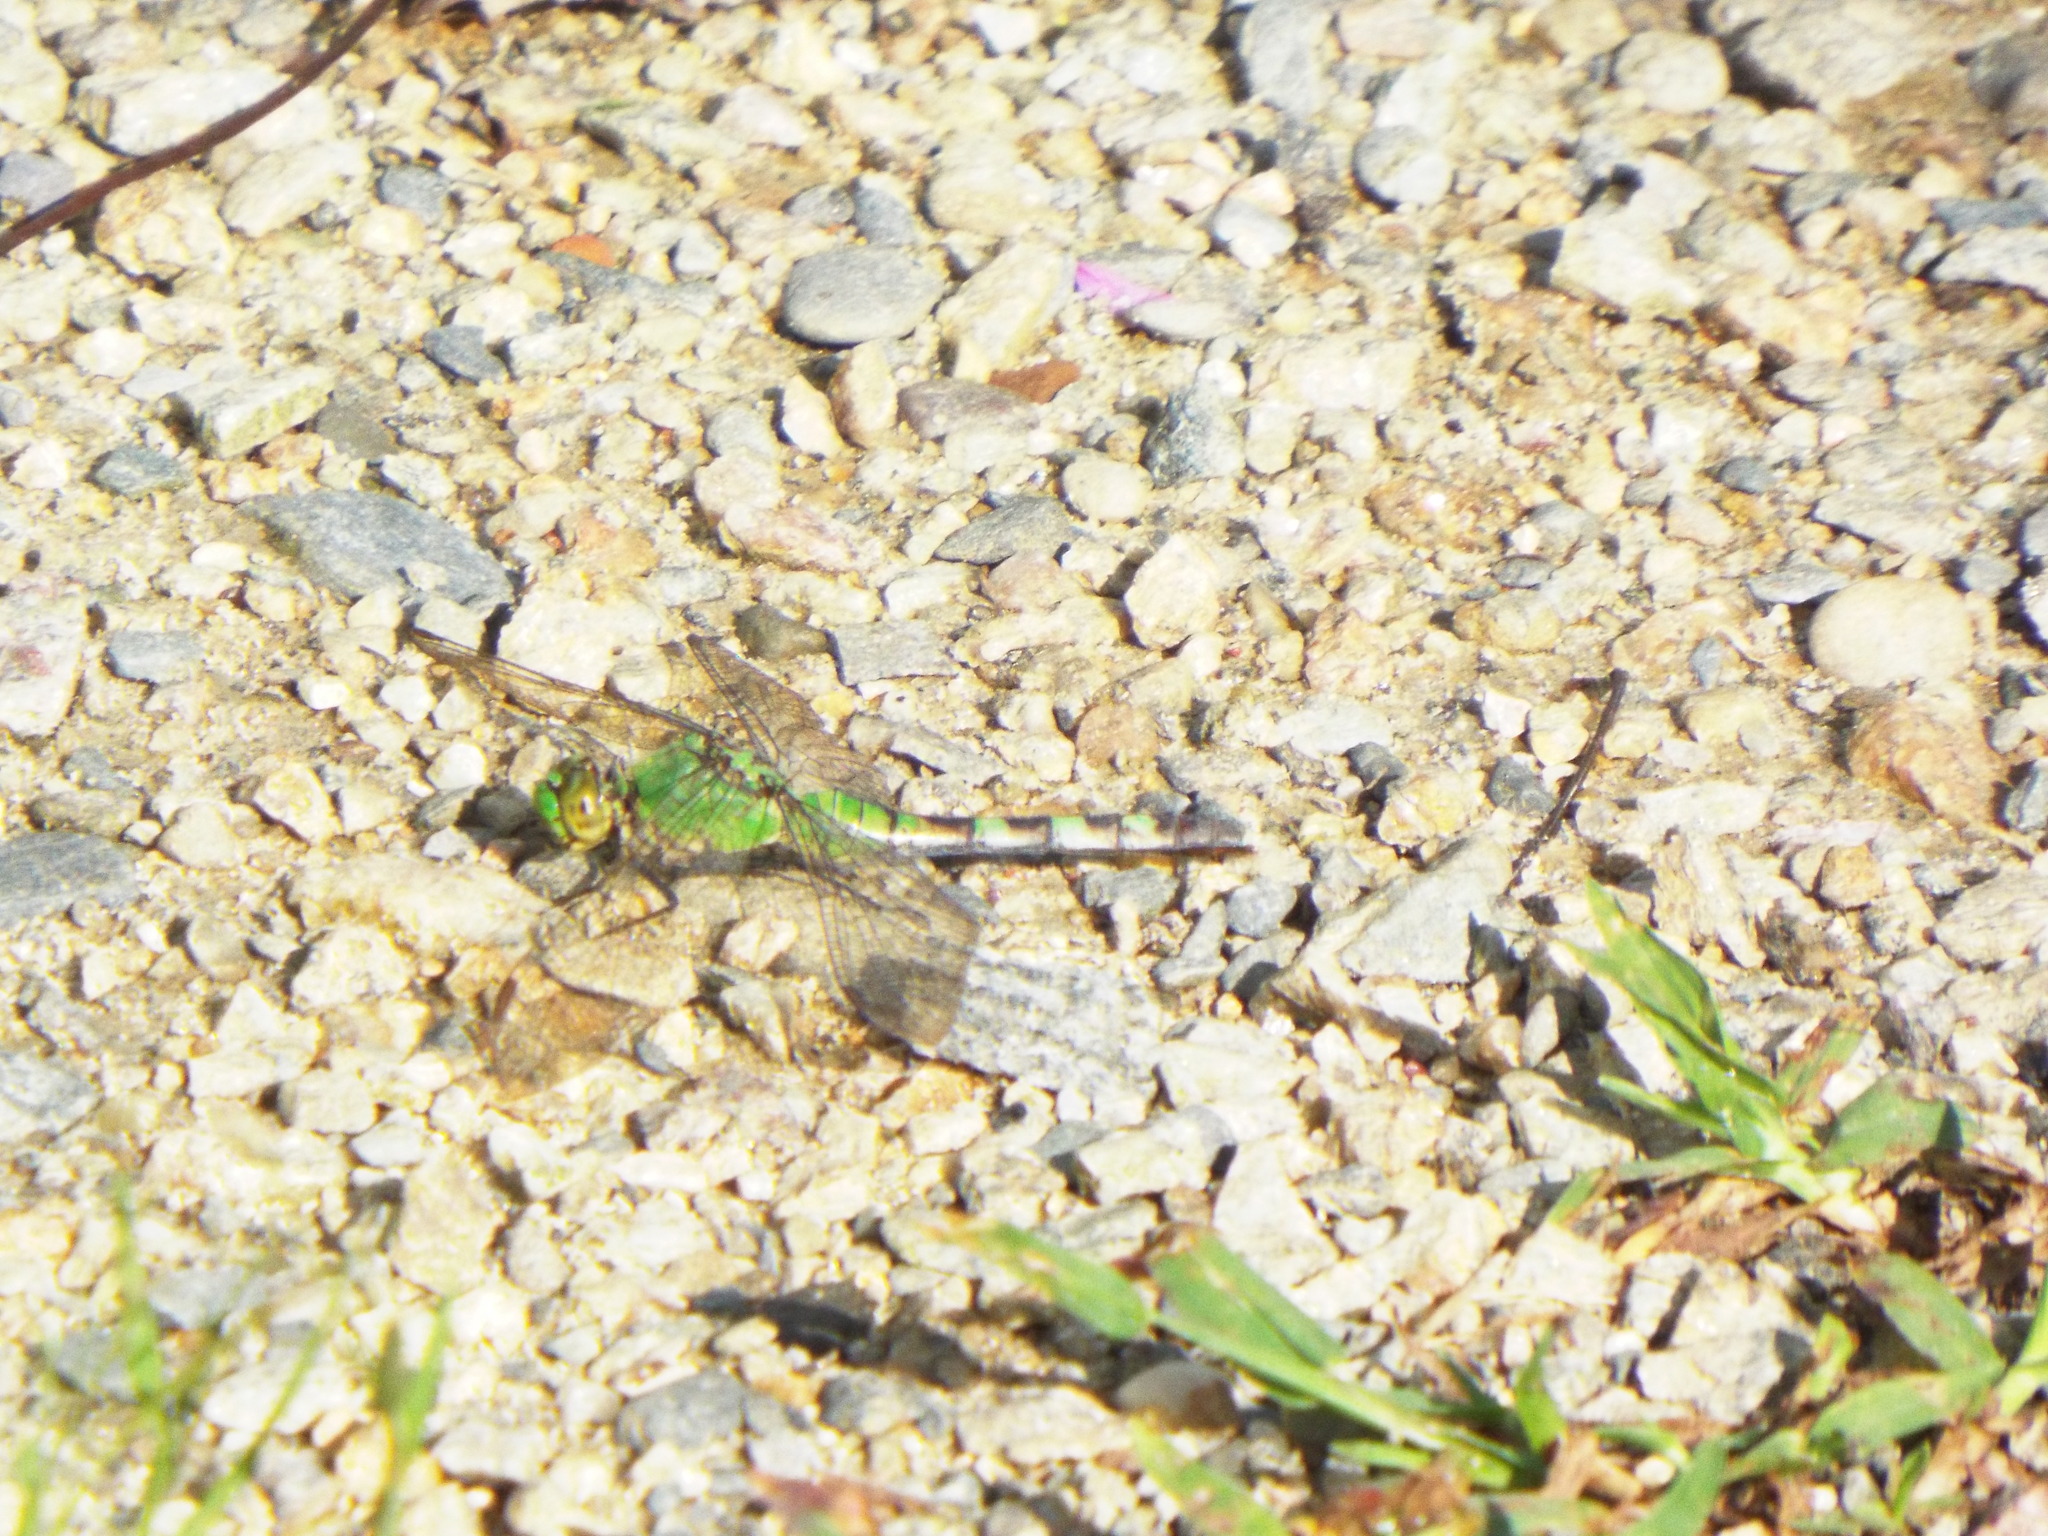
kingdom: Animalia
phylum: Arthropoda
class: Insecta
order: Odonata
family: Libellulidae
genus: Erythemis
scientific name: Erythemis simplicicollis
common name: Eastern pondhawk
